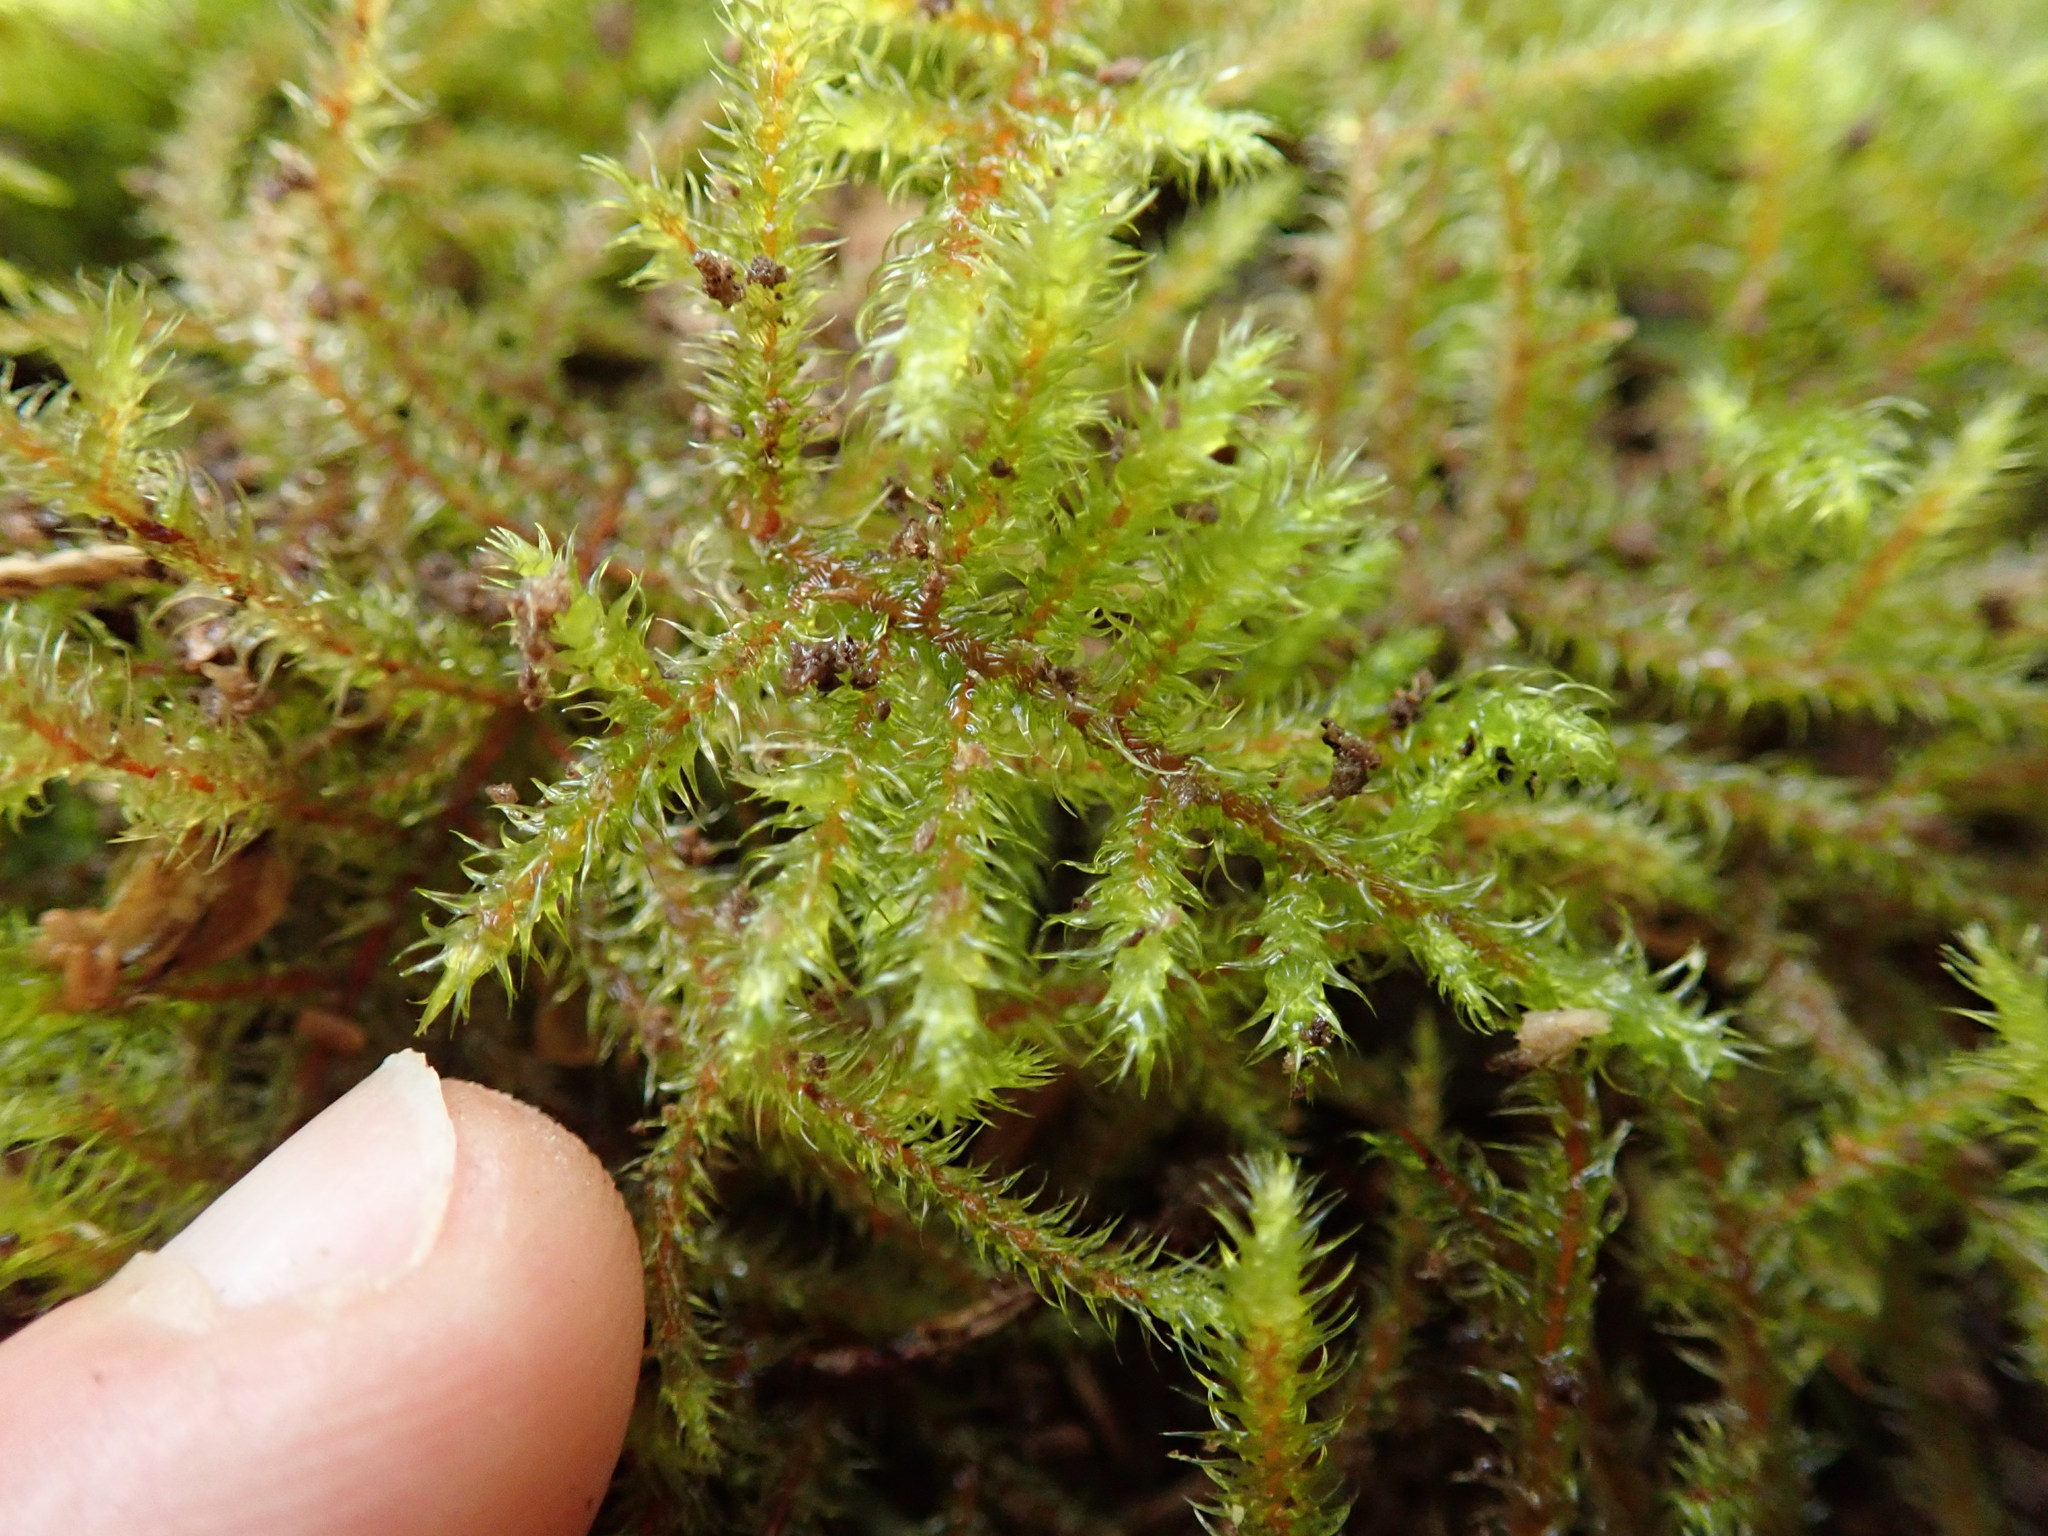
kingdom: Plantae
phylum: Bryophyta
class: Bryopsida
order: Hypnales
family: Hylocomiaceae
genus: Rhytidiadelphus
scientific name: Rhytidiadelphus loreus
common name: Lanky moss
